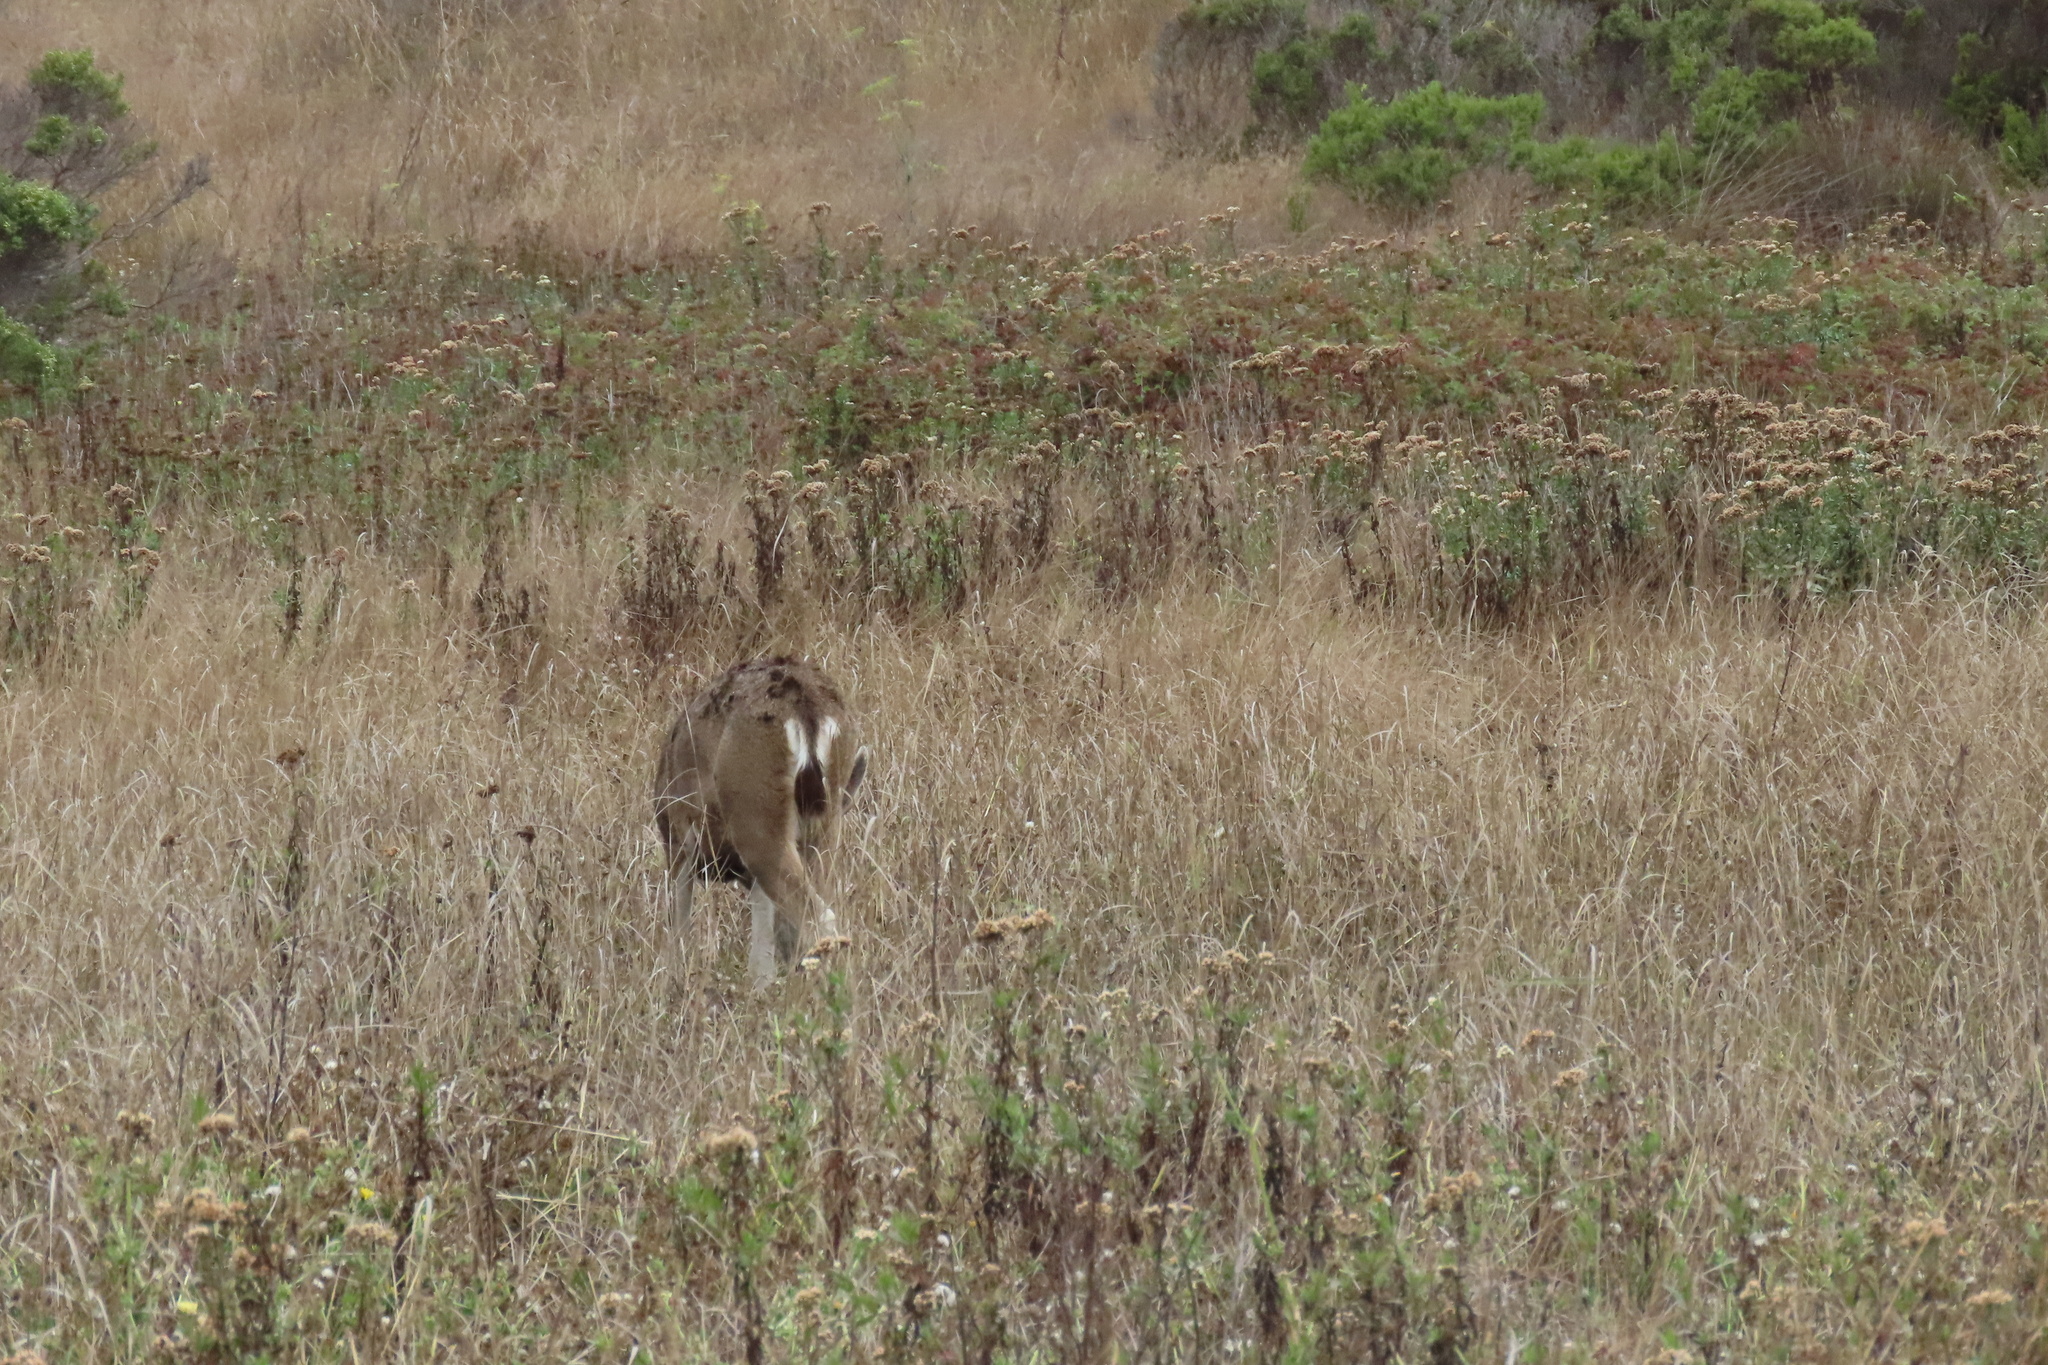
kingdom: Animalia
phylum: Chordata
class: Mammalia
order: Artiodactyla
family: Cervidae
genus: Odocoileus
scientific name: Odocoileus hemionus
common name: Mule deer
